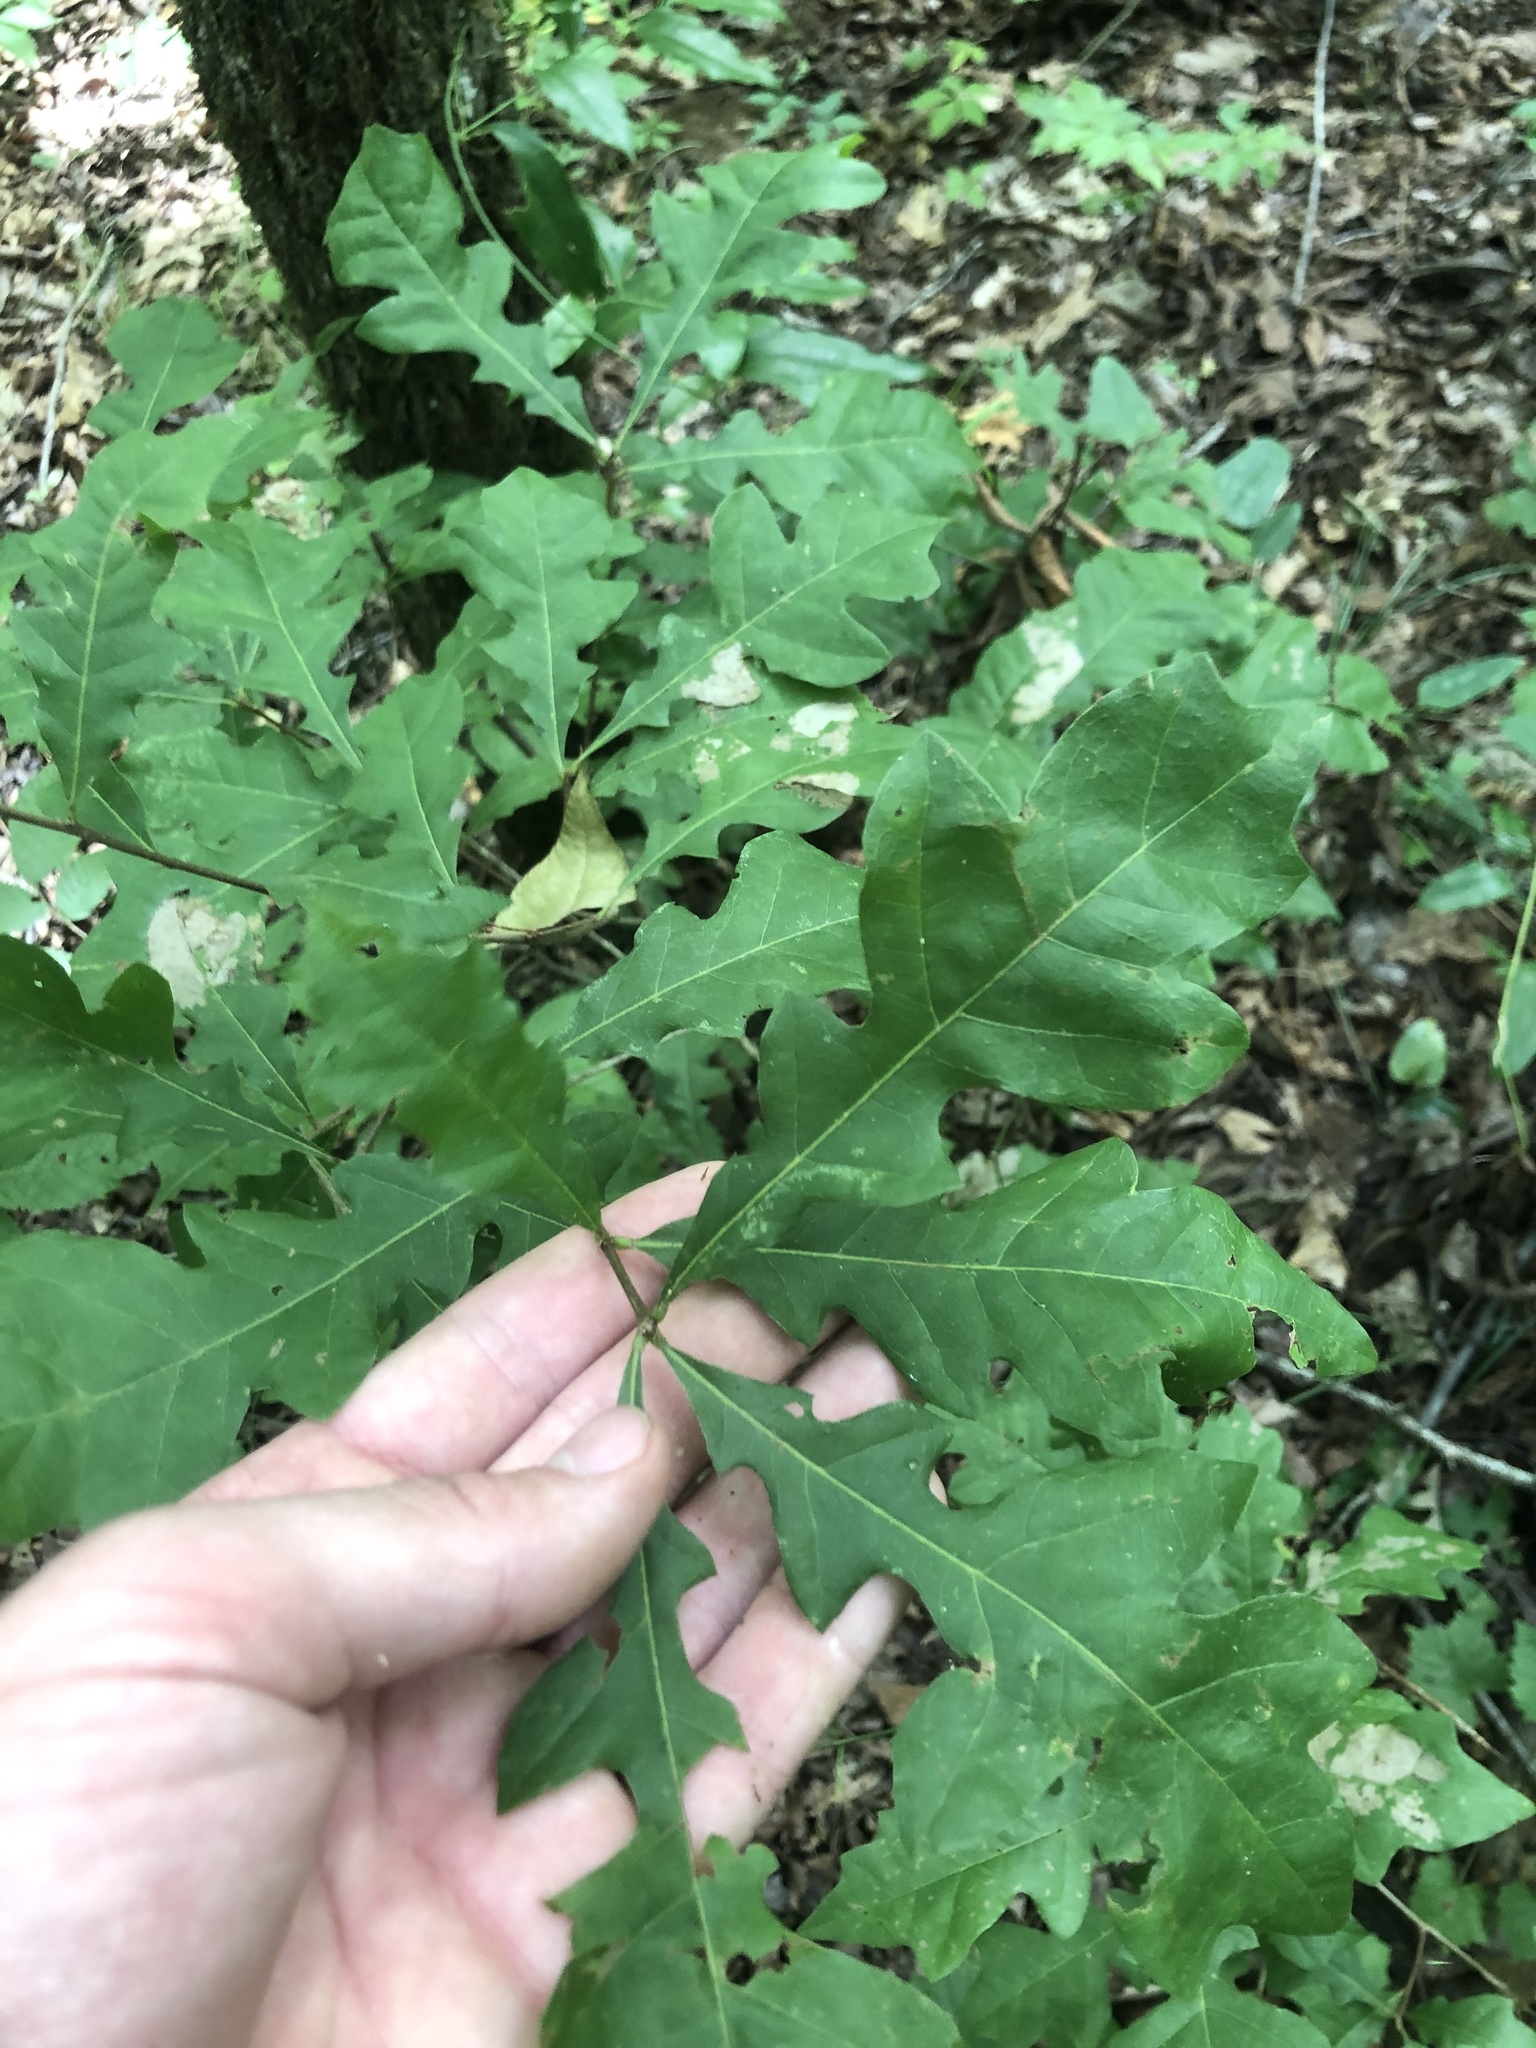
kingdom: Plantae
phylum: Tracheophyta
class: Magnoliopsida
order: Fagales
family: Fagaceae
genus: Quercus
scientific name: Quercus lyrata
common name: Overcup oak
